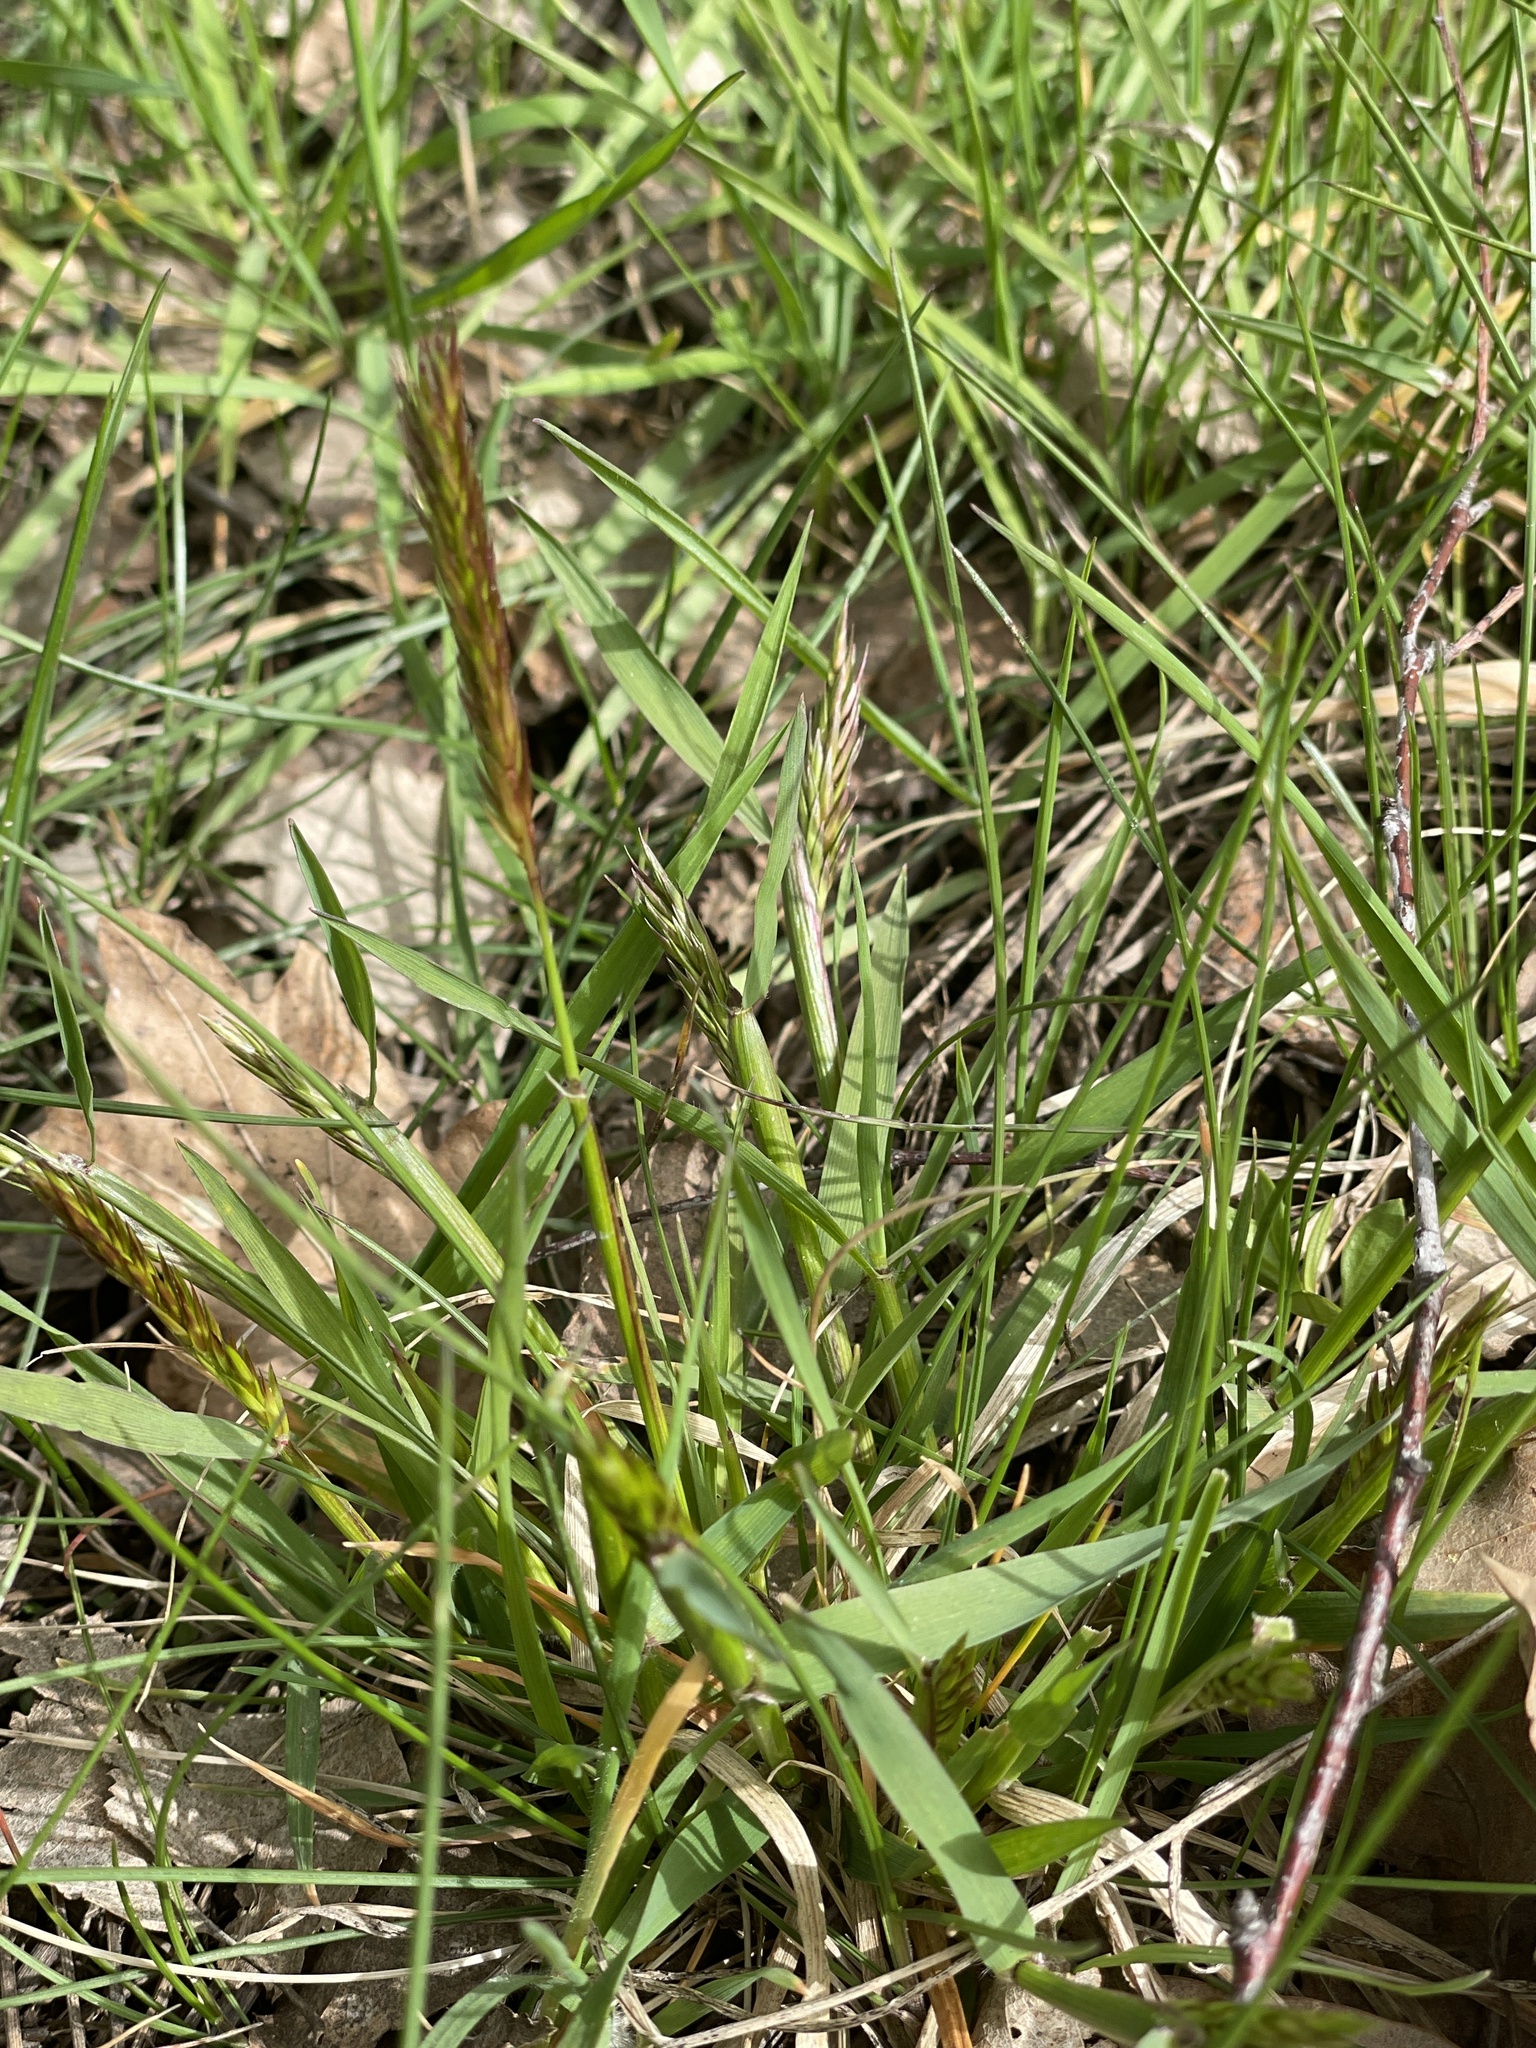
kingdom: Plantae
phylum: Tracheophyta
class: Liliopsida
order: Poales
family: Poaceae
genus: Anthoxanthum
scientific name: Anthoxanthum odoratum
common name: Sweet vernalgrass
